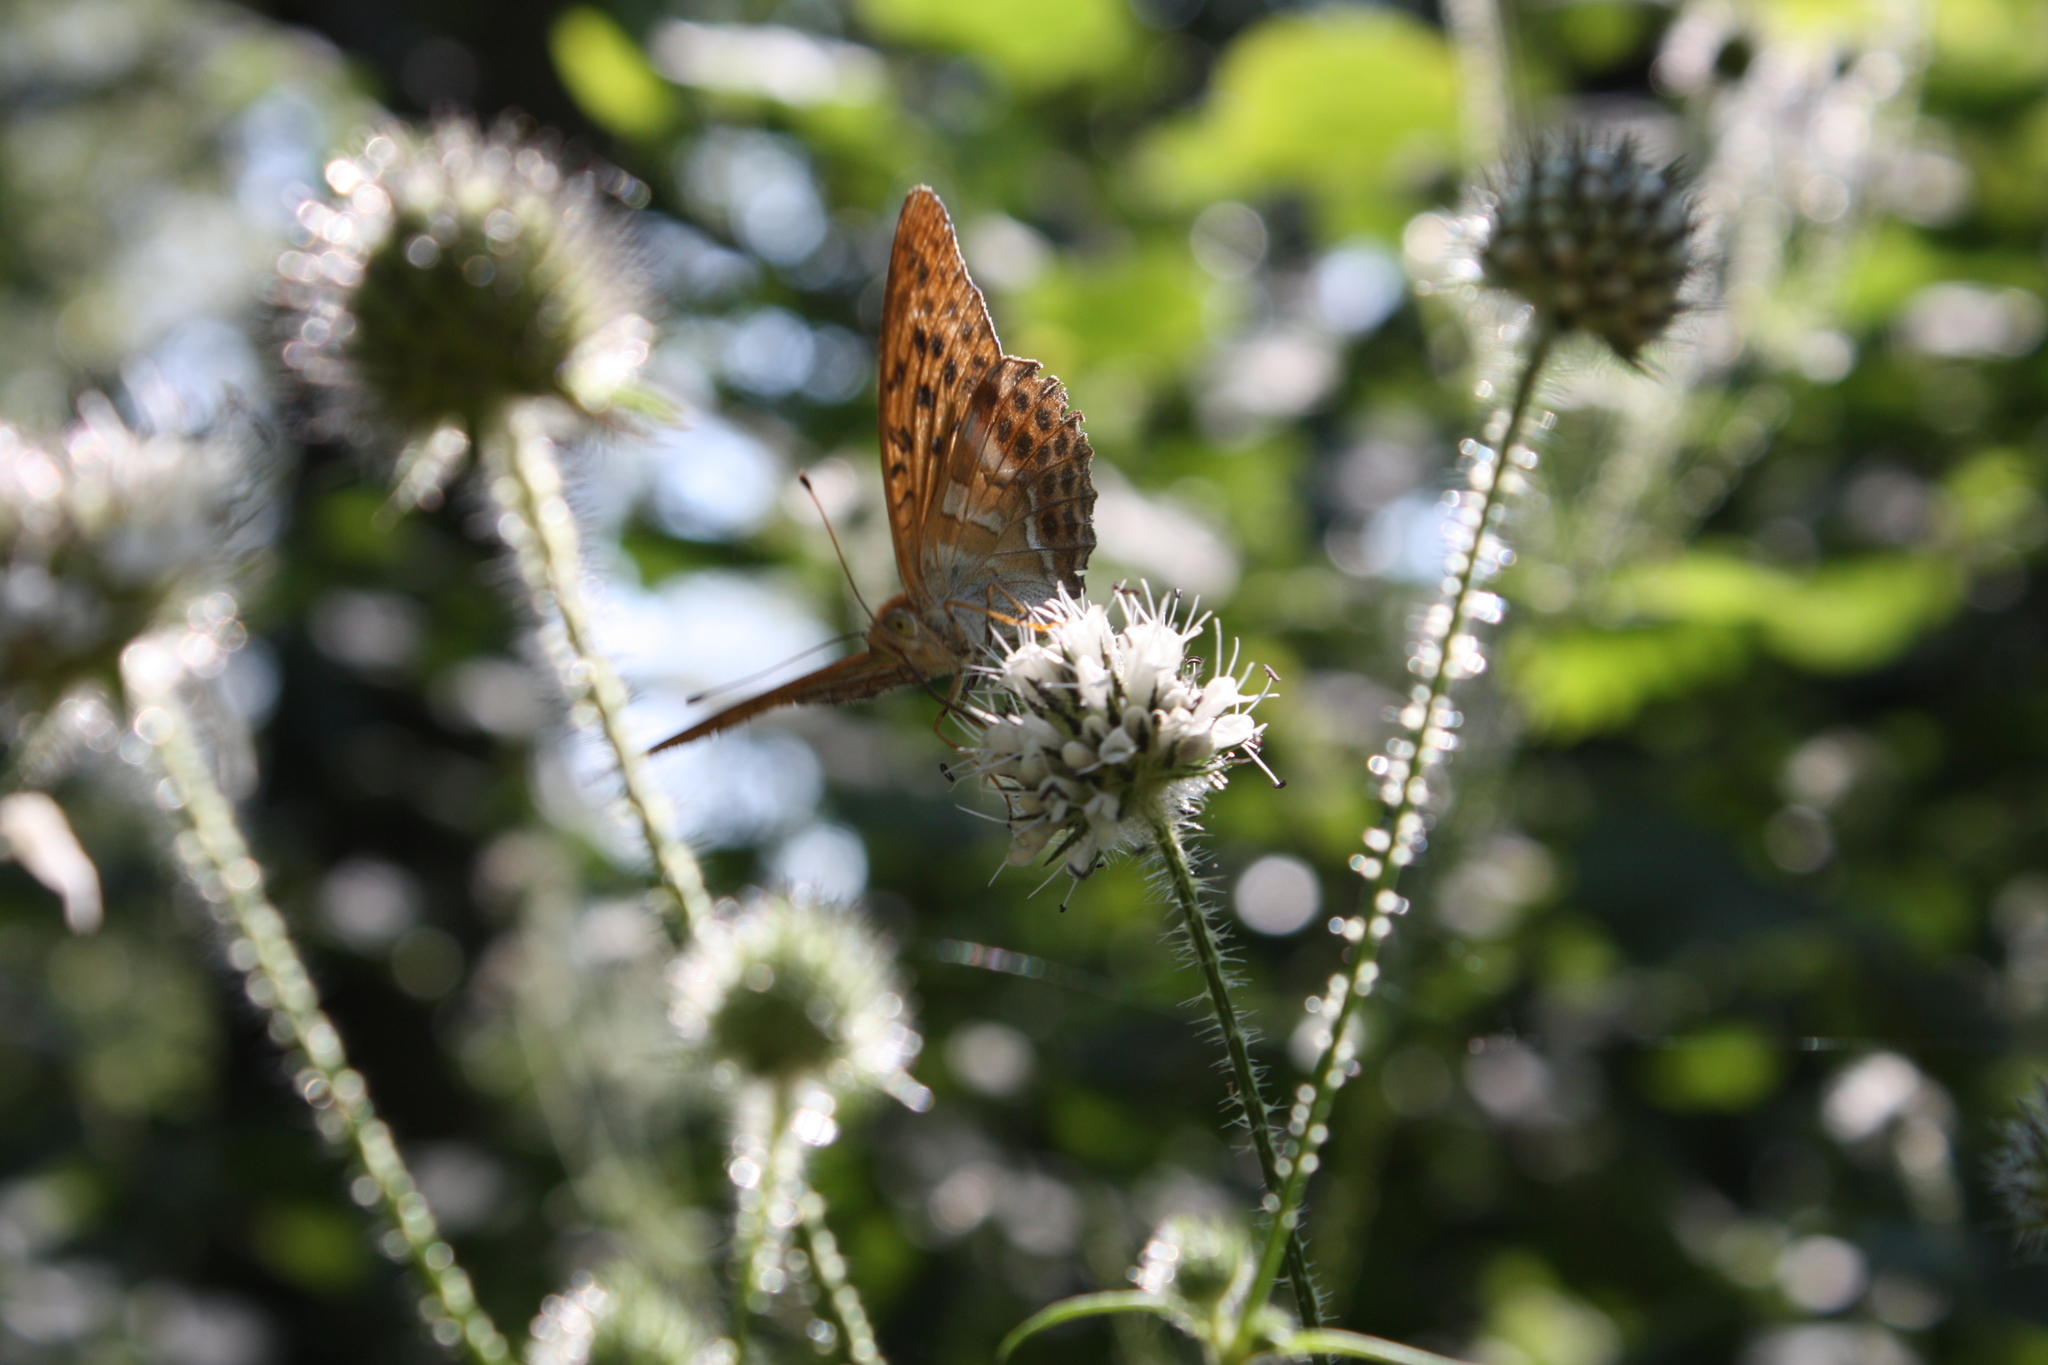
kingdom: Plantae
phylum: Tracheophyta
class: Magnoliopsida
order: Dipsacales
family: Caprifoliaceae
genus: Dipsacus
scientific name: Dipsacus pilosus
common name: Small teasel
